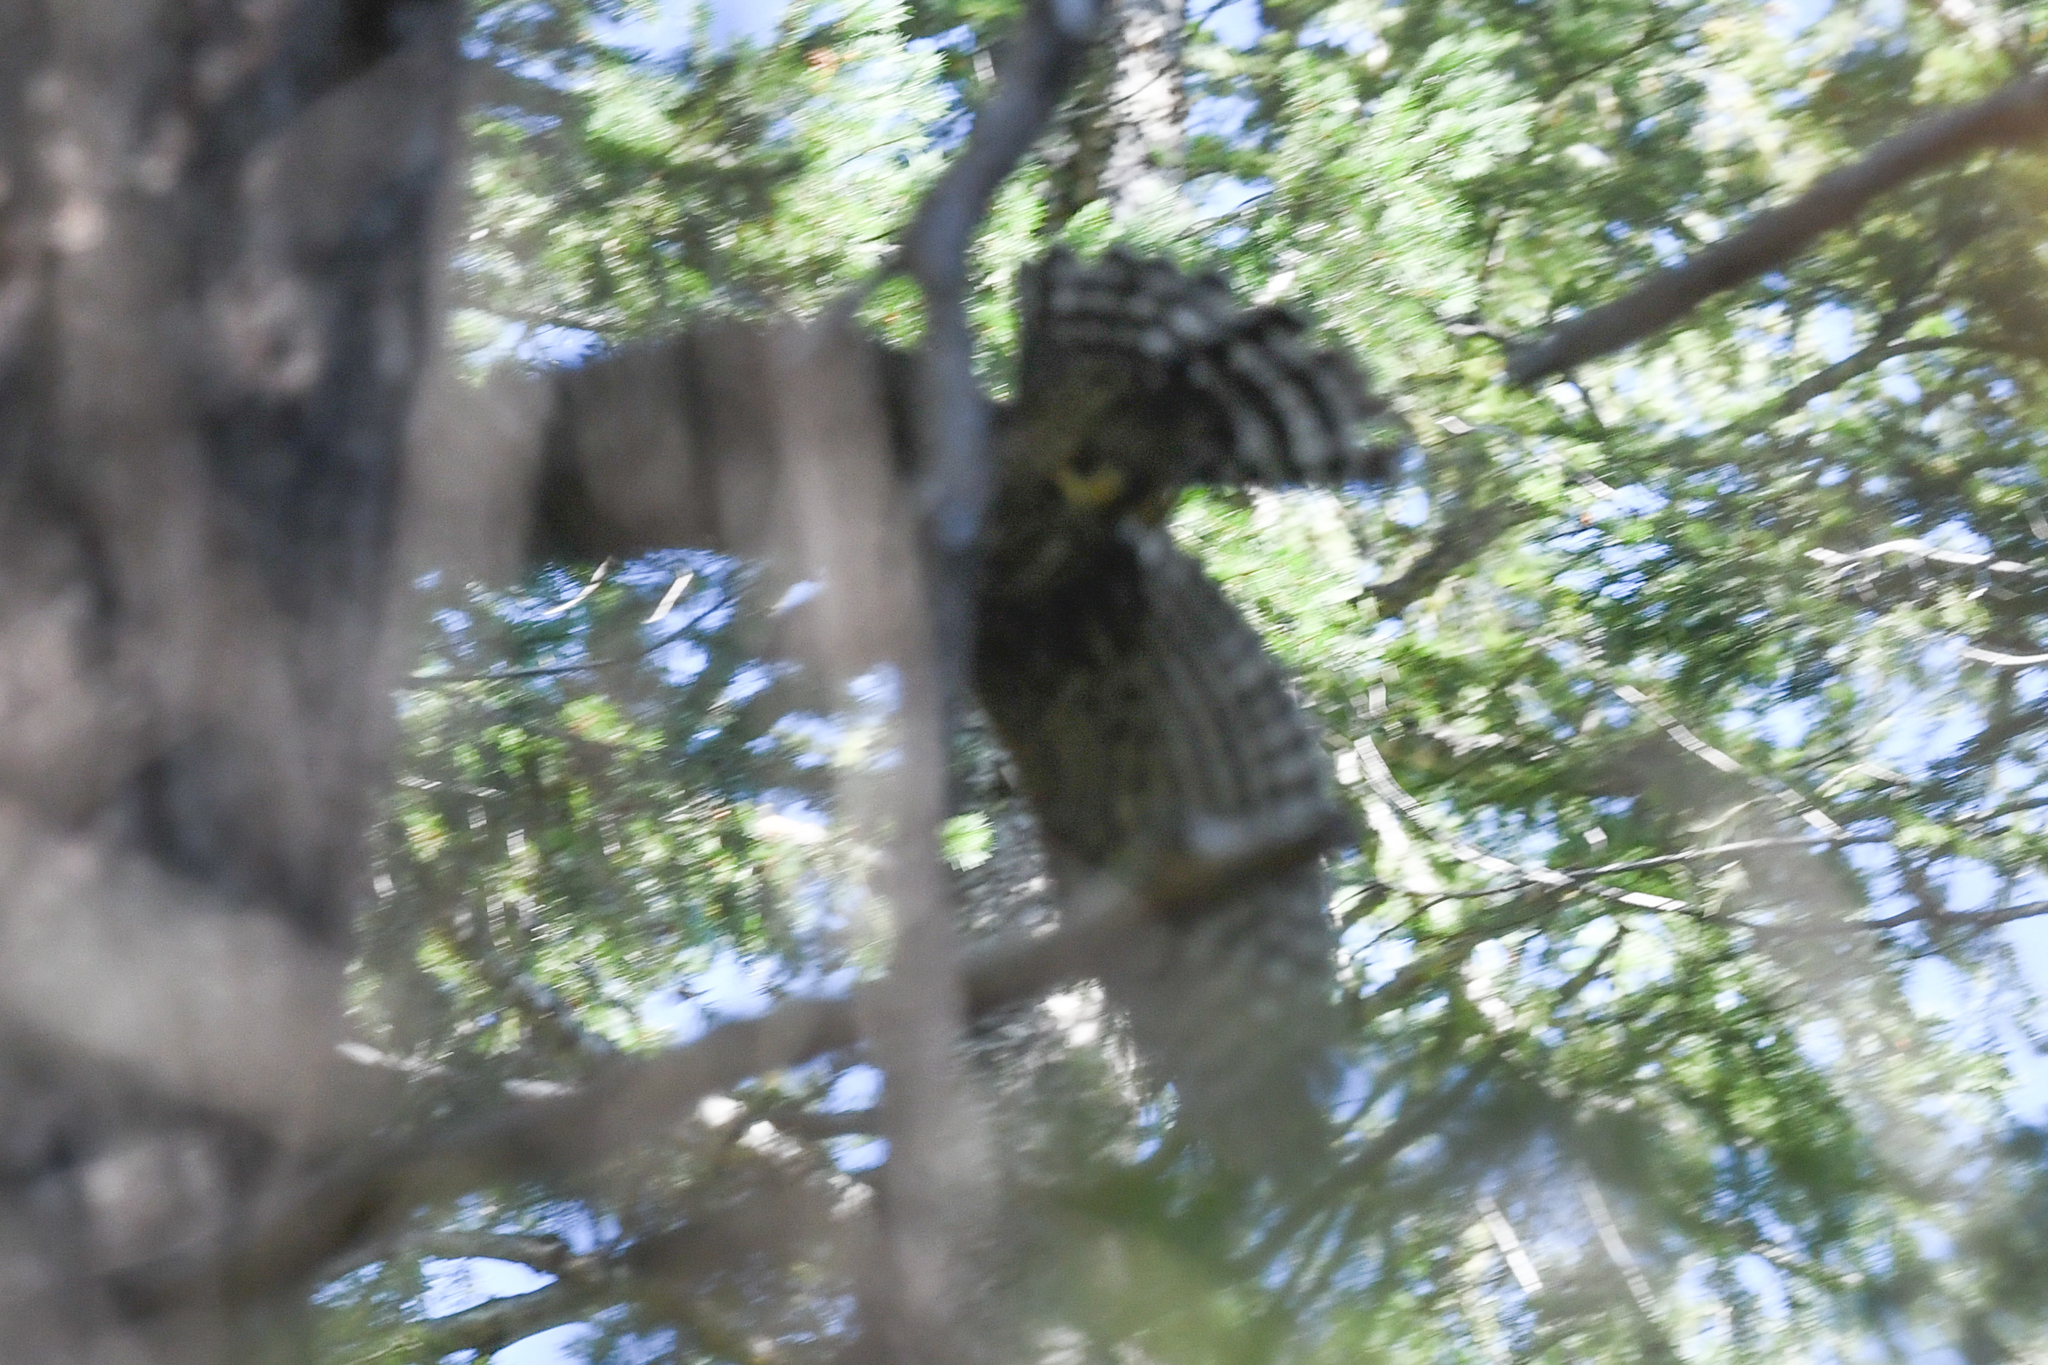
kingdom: Animalia
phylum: Chordata
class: Aves
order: Accipitriformes
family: Accipitridae
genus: Buteo
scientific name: Buteo lineatus
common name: Red-shouldered hawk
